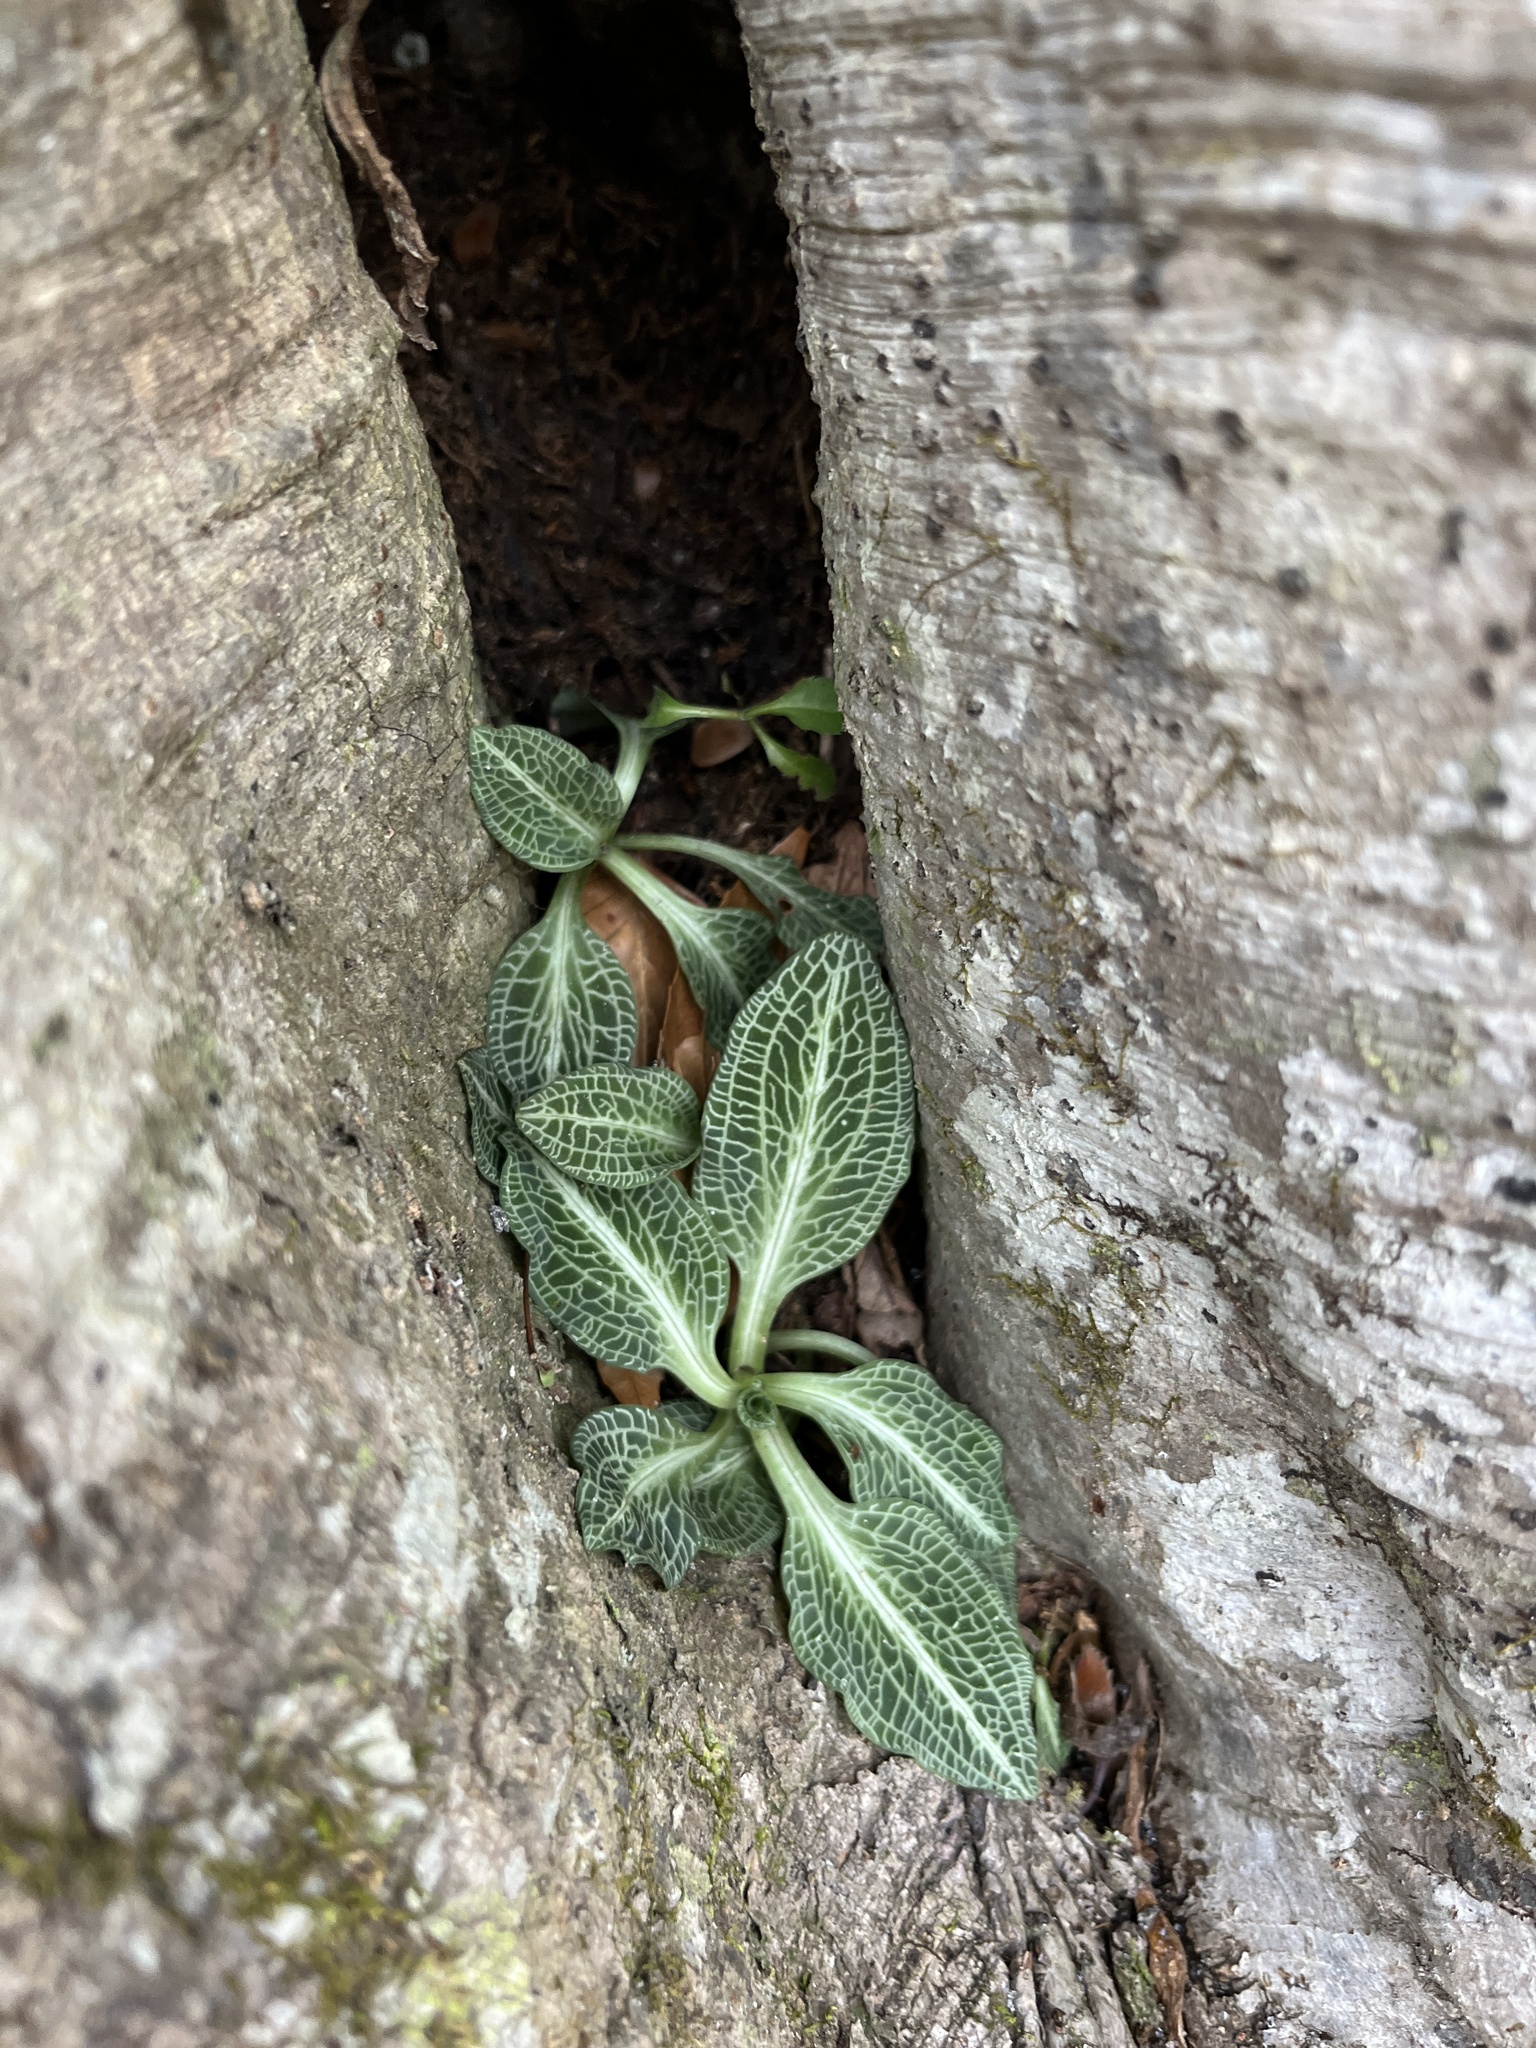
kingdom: Plantae
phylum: Tracheophyta
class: Liliopsida
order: Asparagales
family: Orchidaceae
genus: Goodyera
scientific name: Goodyera pubescens
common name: Downy rattlesnake-plantain
